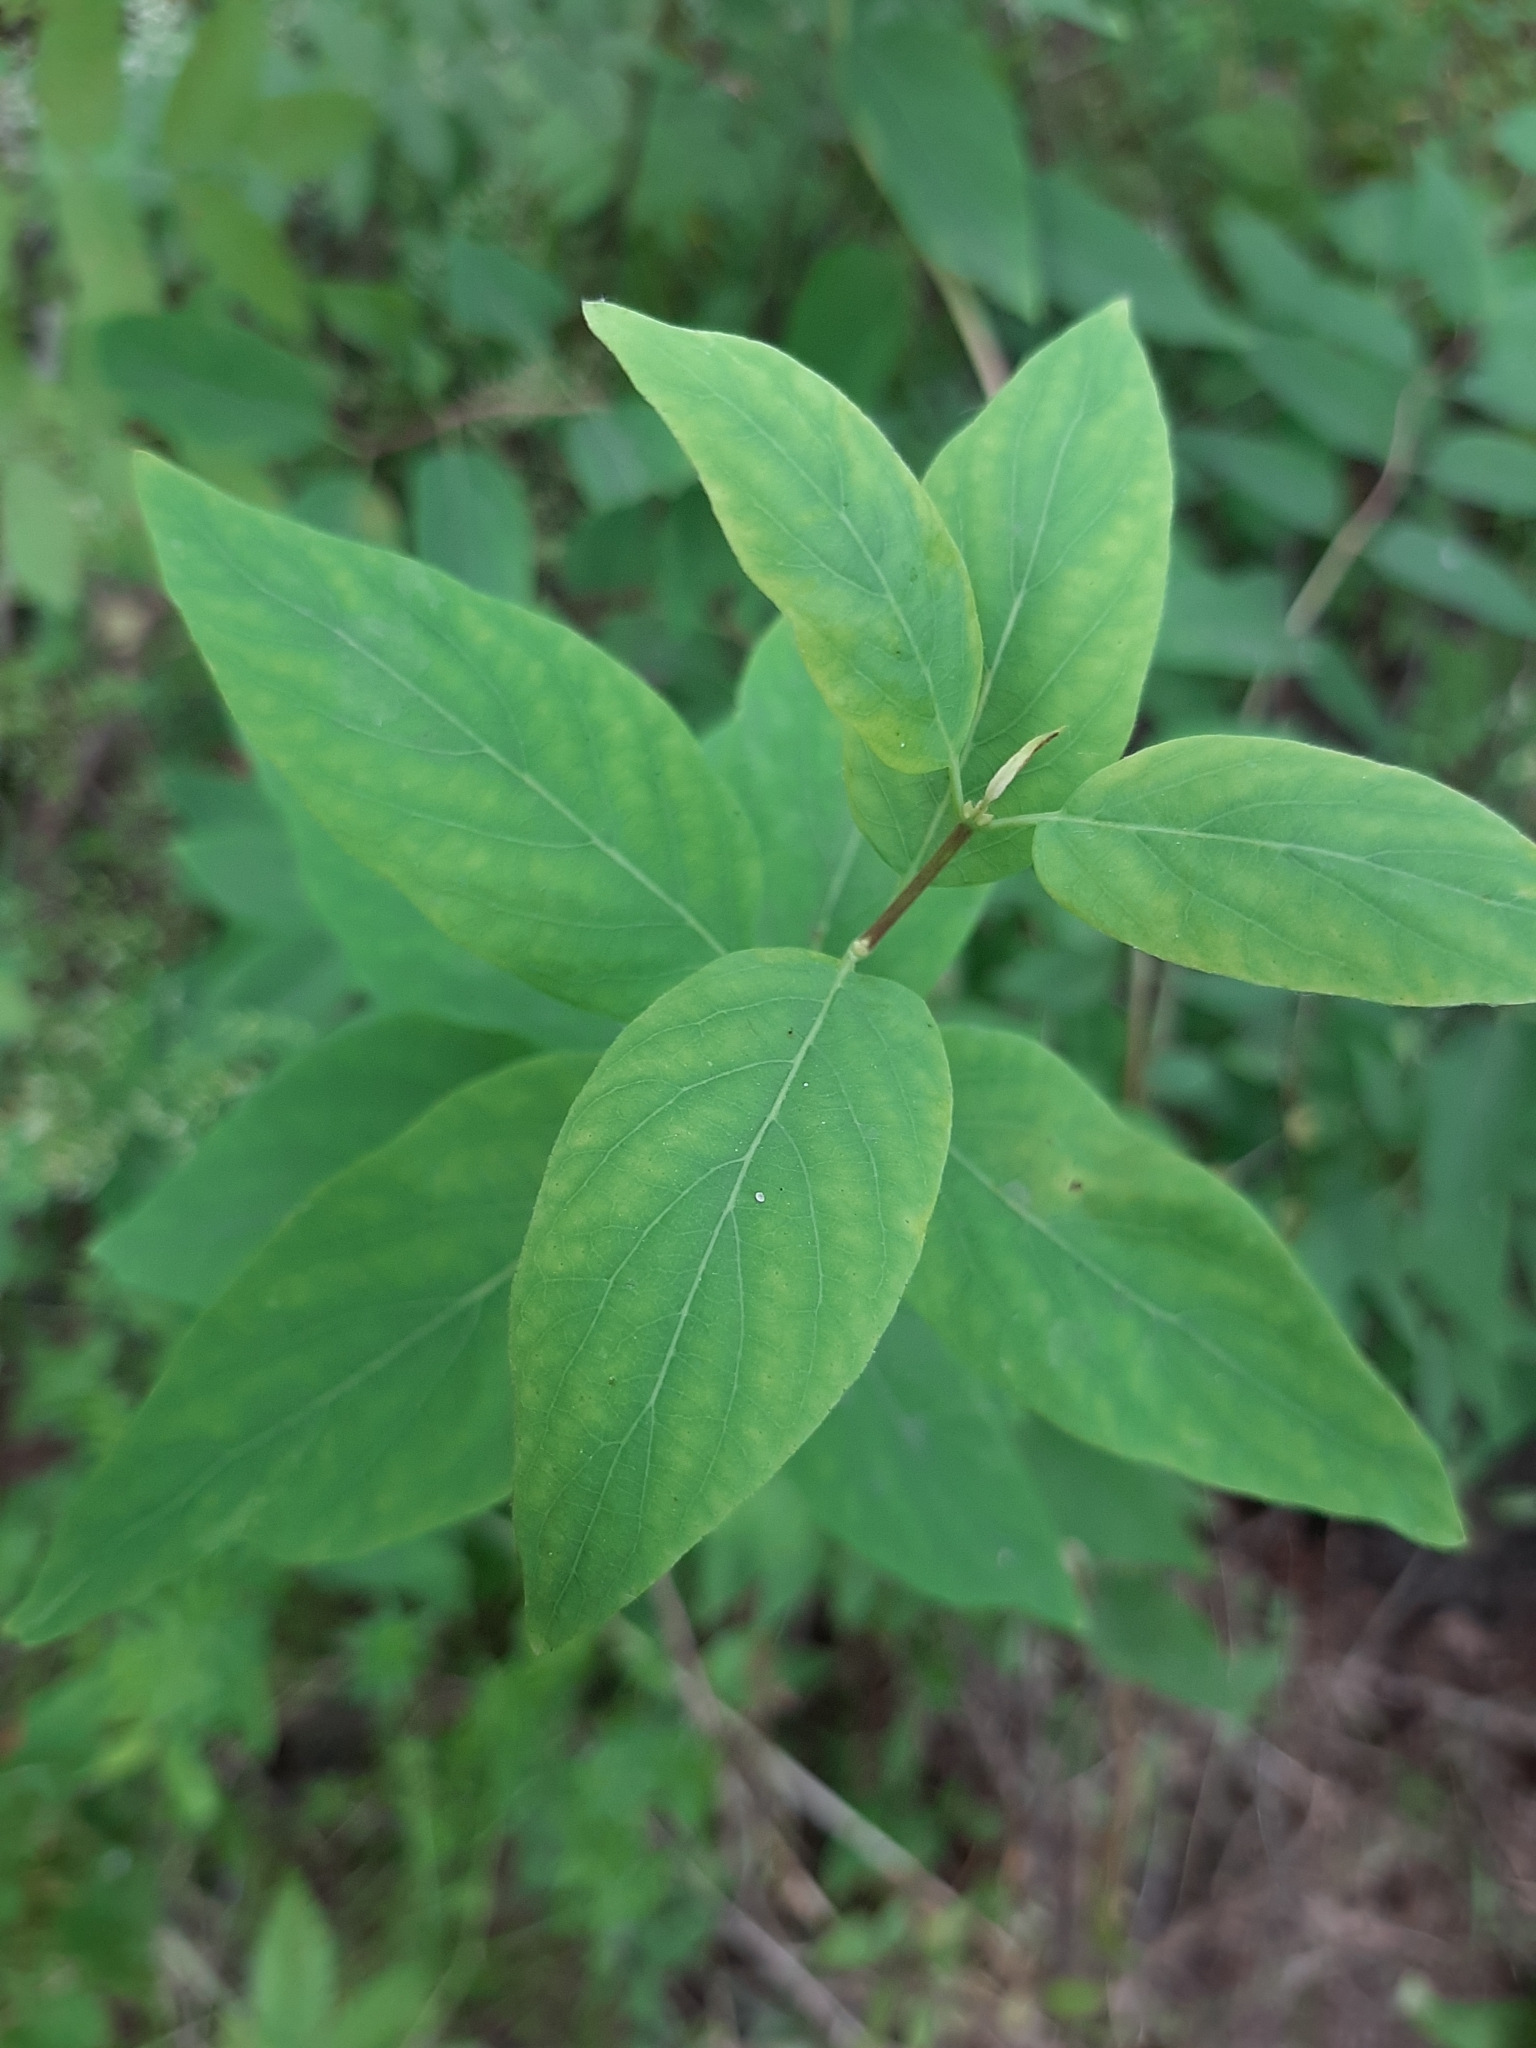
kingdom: Plantae
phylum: Tracheophyta
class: Magnoliopsida
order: Dipsacales
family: Caprifoliaceae
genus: Lonicera
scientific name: Lonicera tatarica
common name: Tatarian honeysuckle
